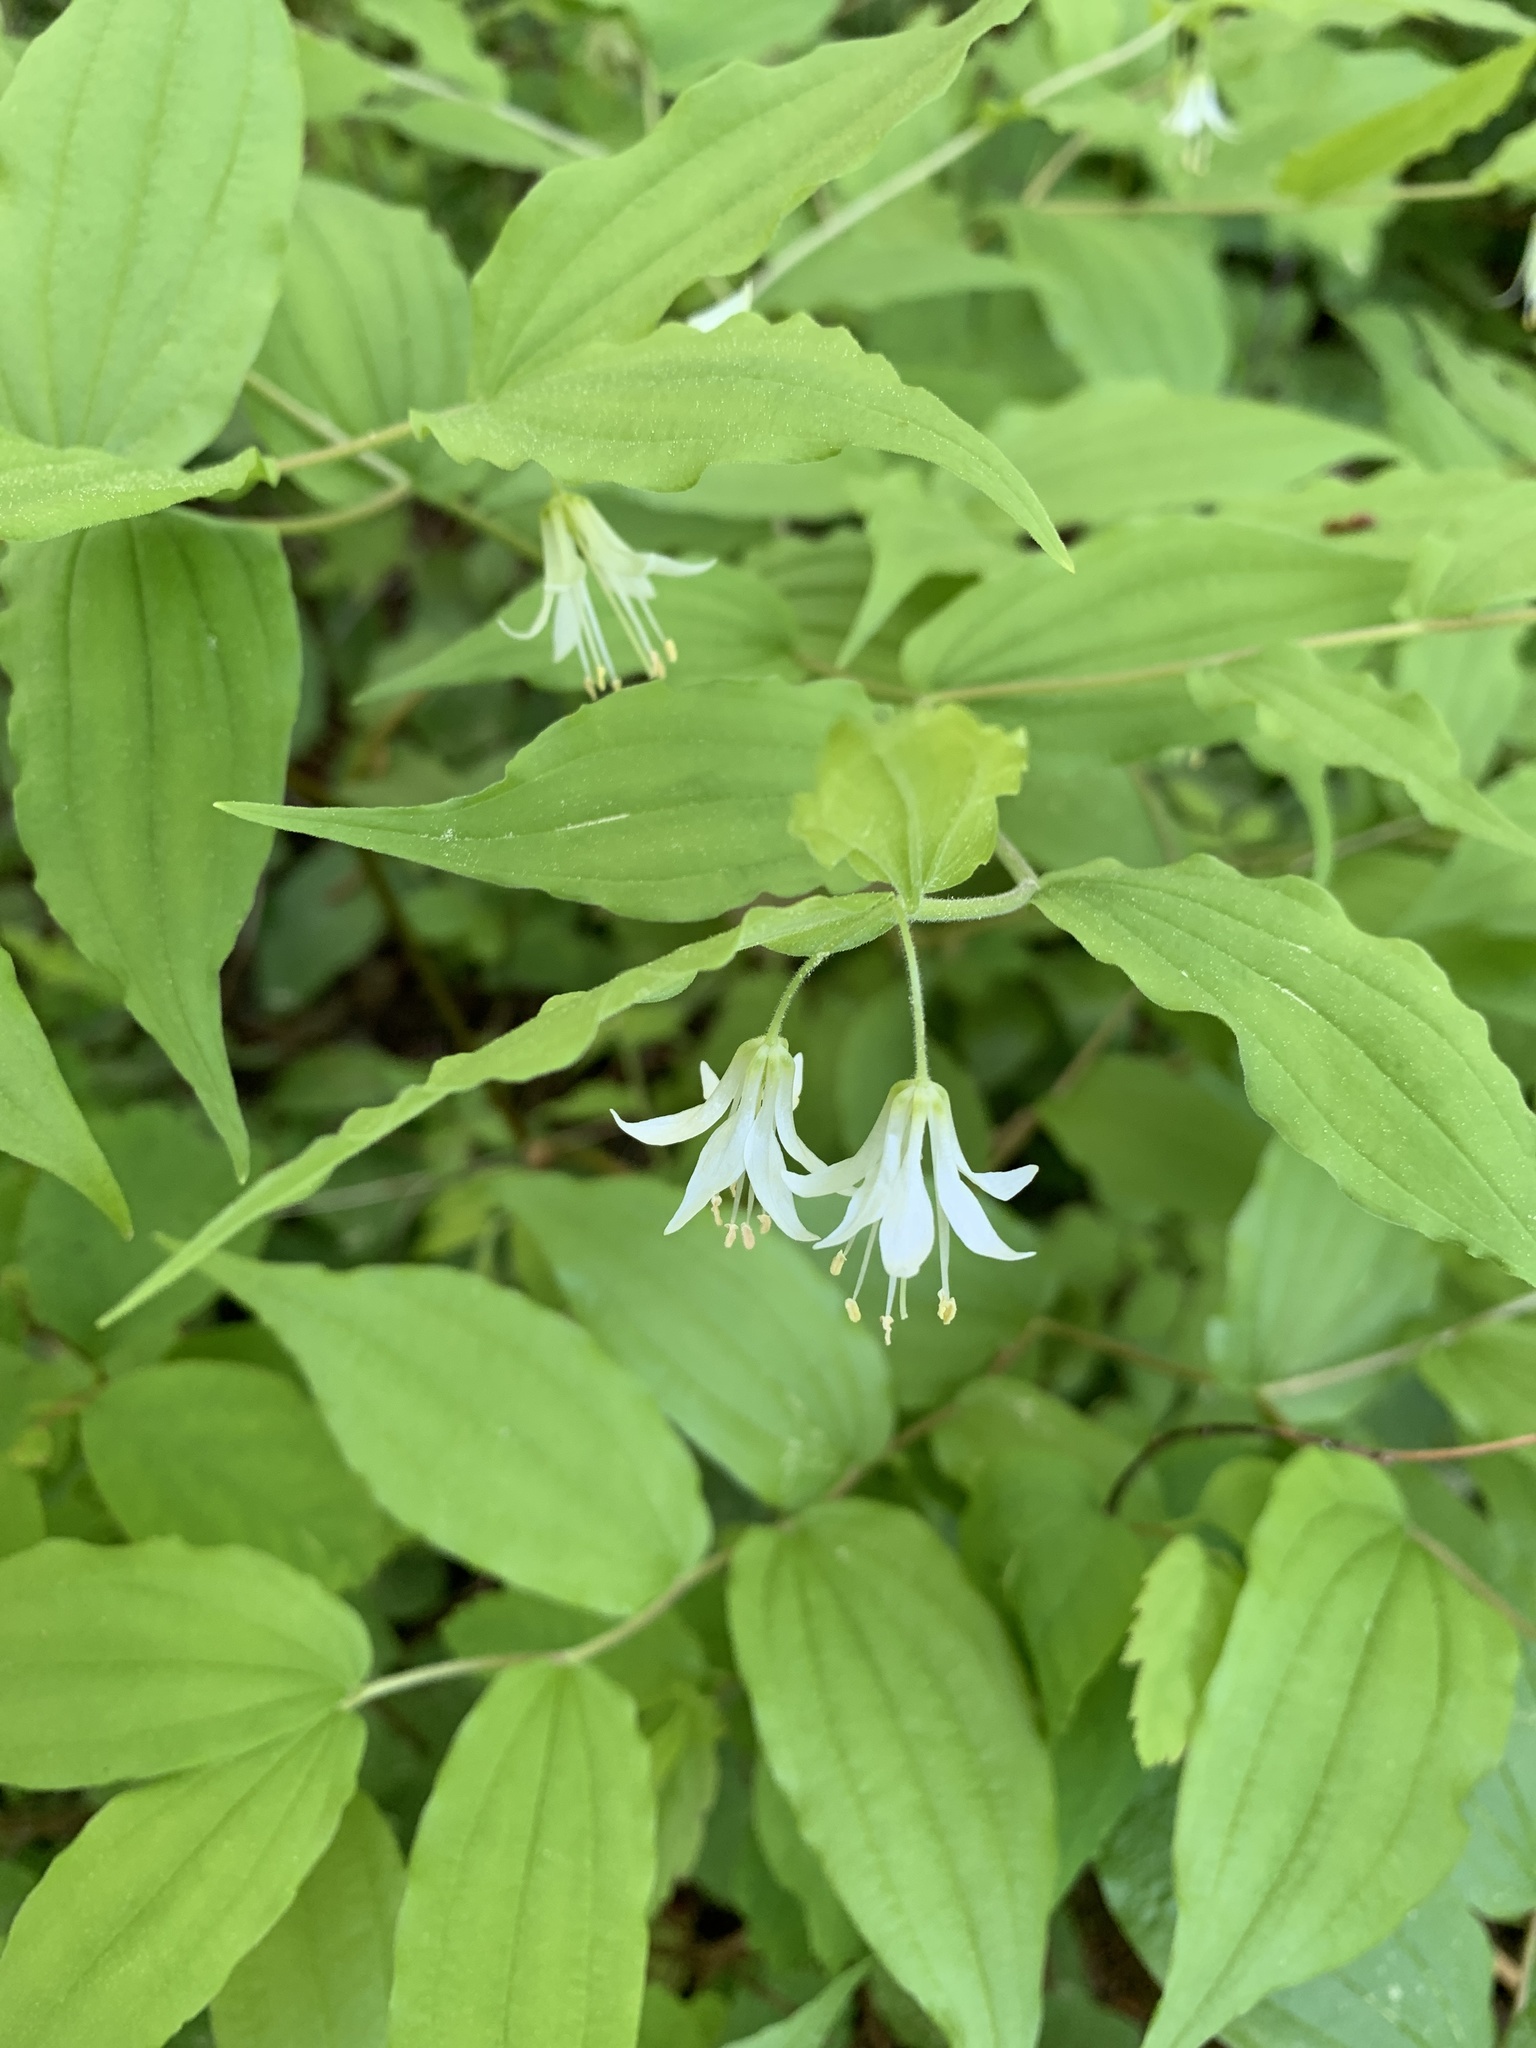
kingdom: Plantae
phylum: Tracheophyta
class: Liliopsida
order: Liliales
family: Liliaceae
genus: Prosartes
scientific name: Prosartes hookeri
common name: Fairy-bells
